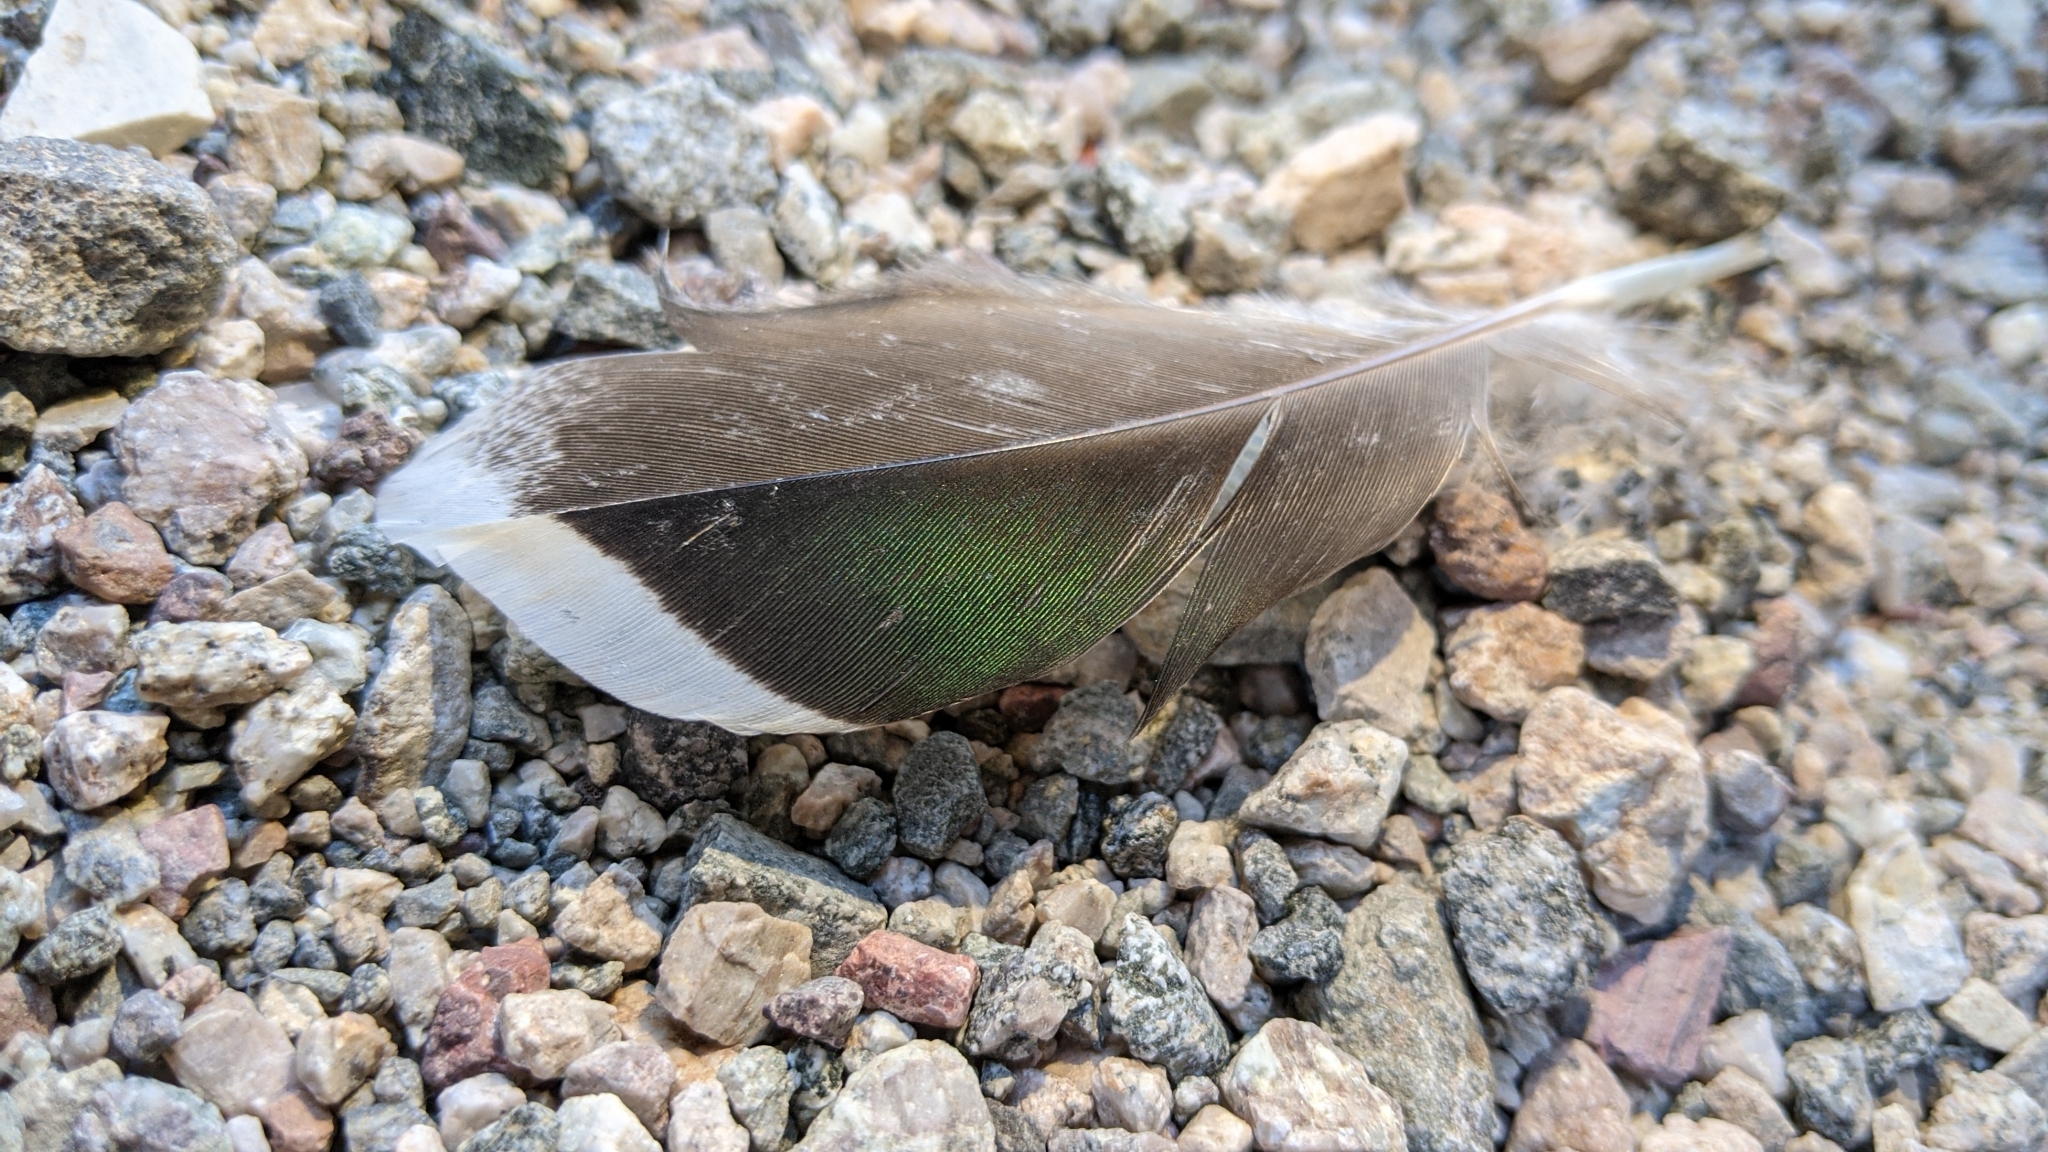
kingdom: Animalia
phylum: Chordata
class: Aves
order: Anseriformes
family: Anatidae
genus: Anas
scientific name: Anas acuta
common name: Northern pintail
